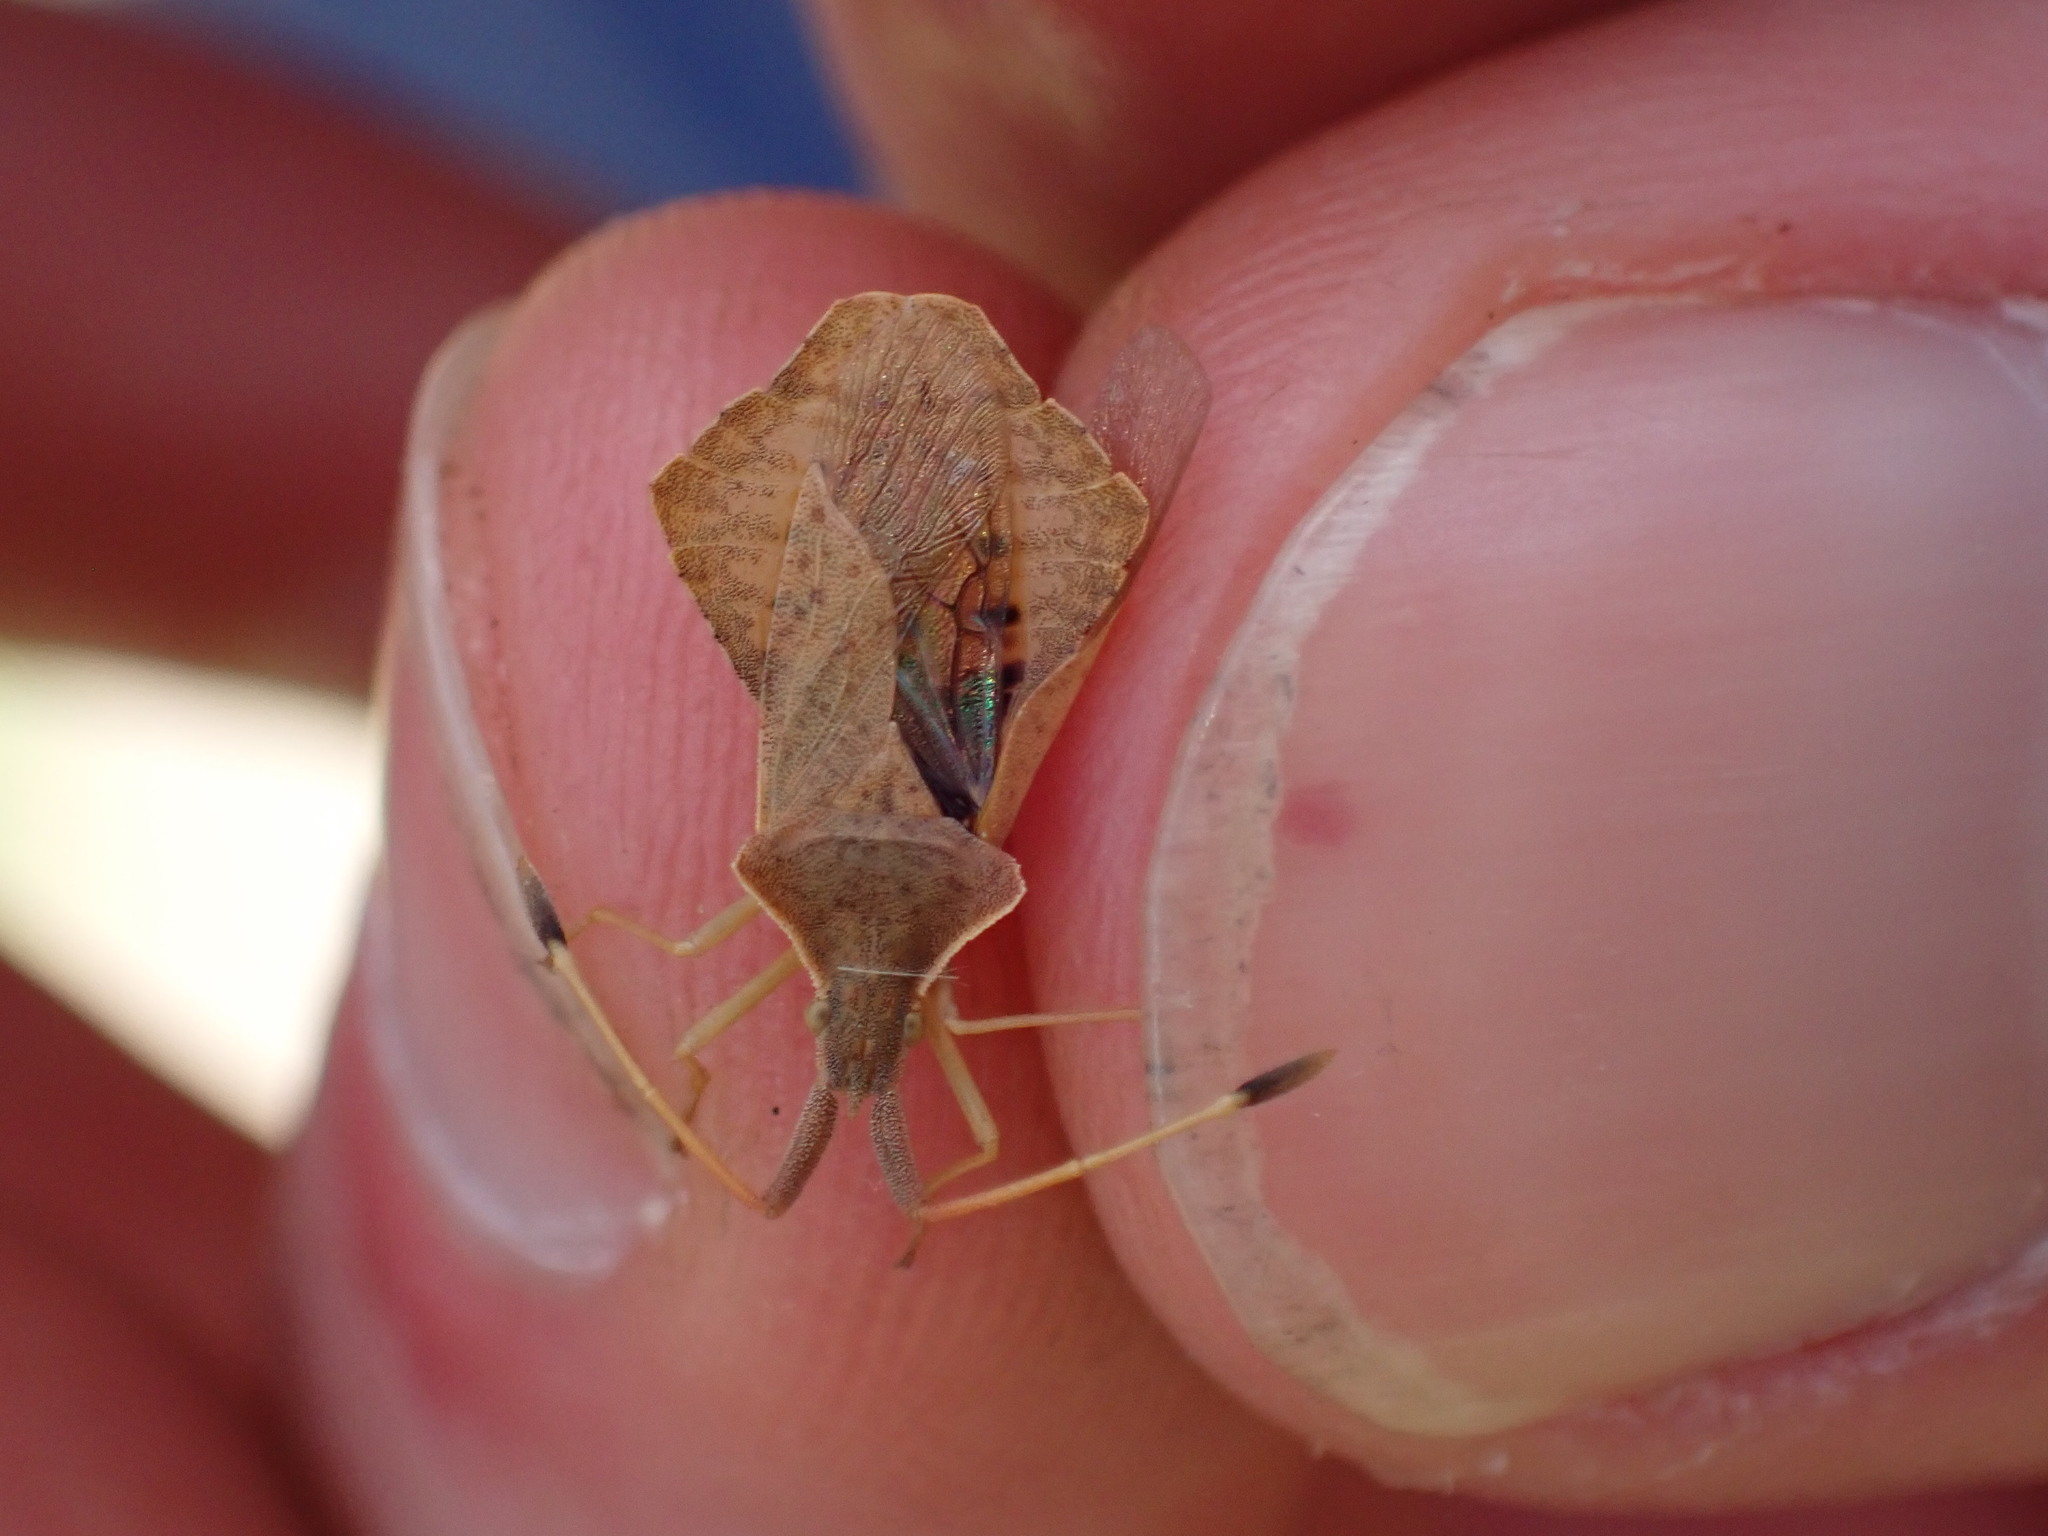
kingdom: Animalia
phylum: Arthropoda
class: Insecta
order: Hemiptera
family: Coreidae
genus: Syromastus
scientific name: Syromastus rhombeus
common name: Rhombic leatherbug
